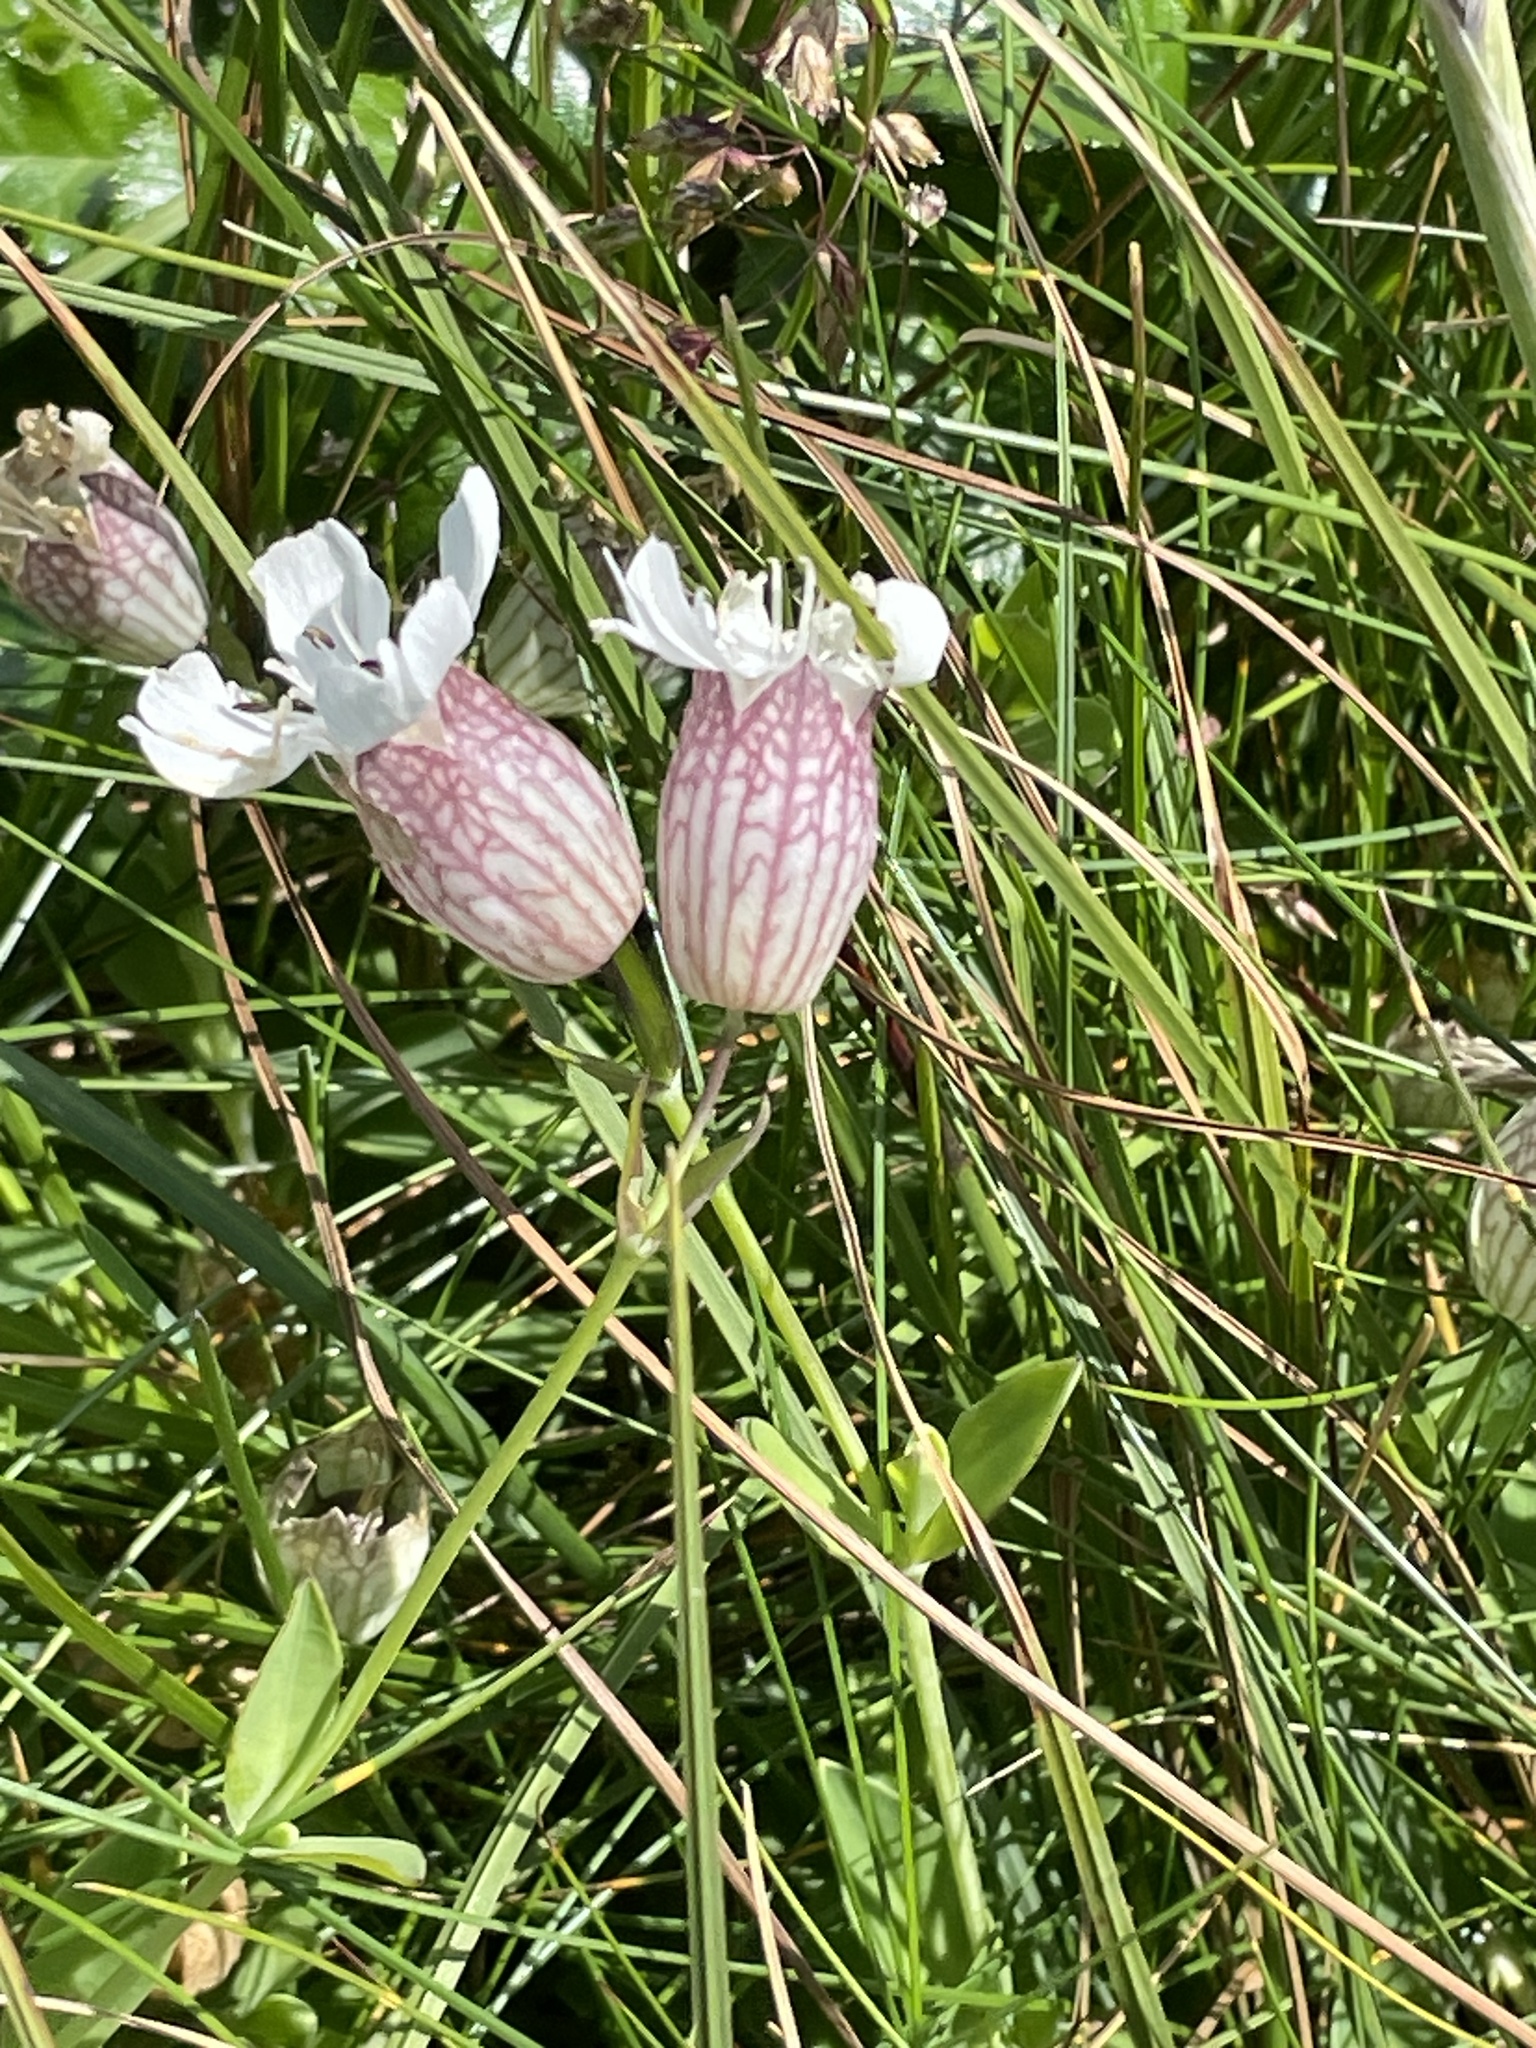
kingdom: Plantae
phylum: Tracheophyta
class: Magnoliopsida
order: Caryophyllales
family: Caryophyllaceae
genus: Silene
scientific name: Silene uniflora
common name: Sea campion
